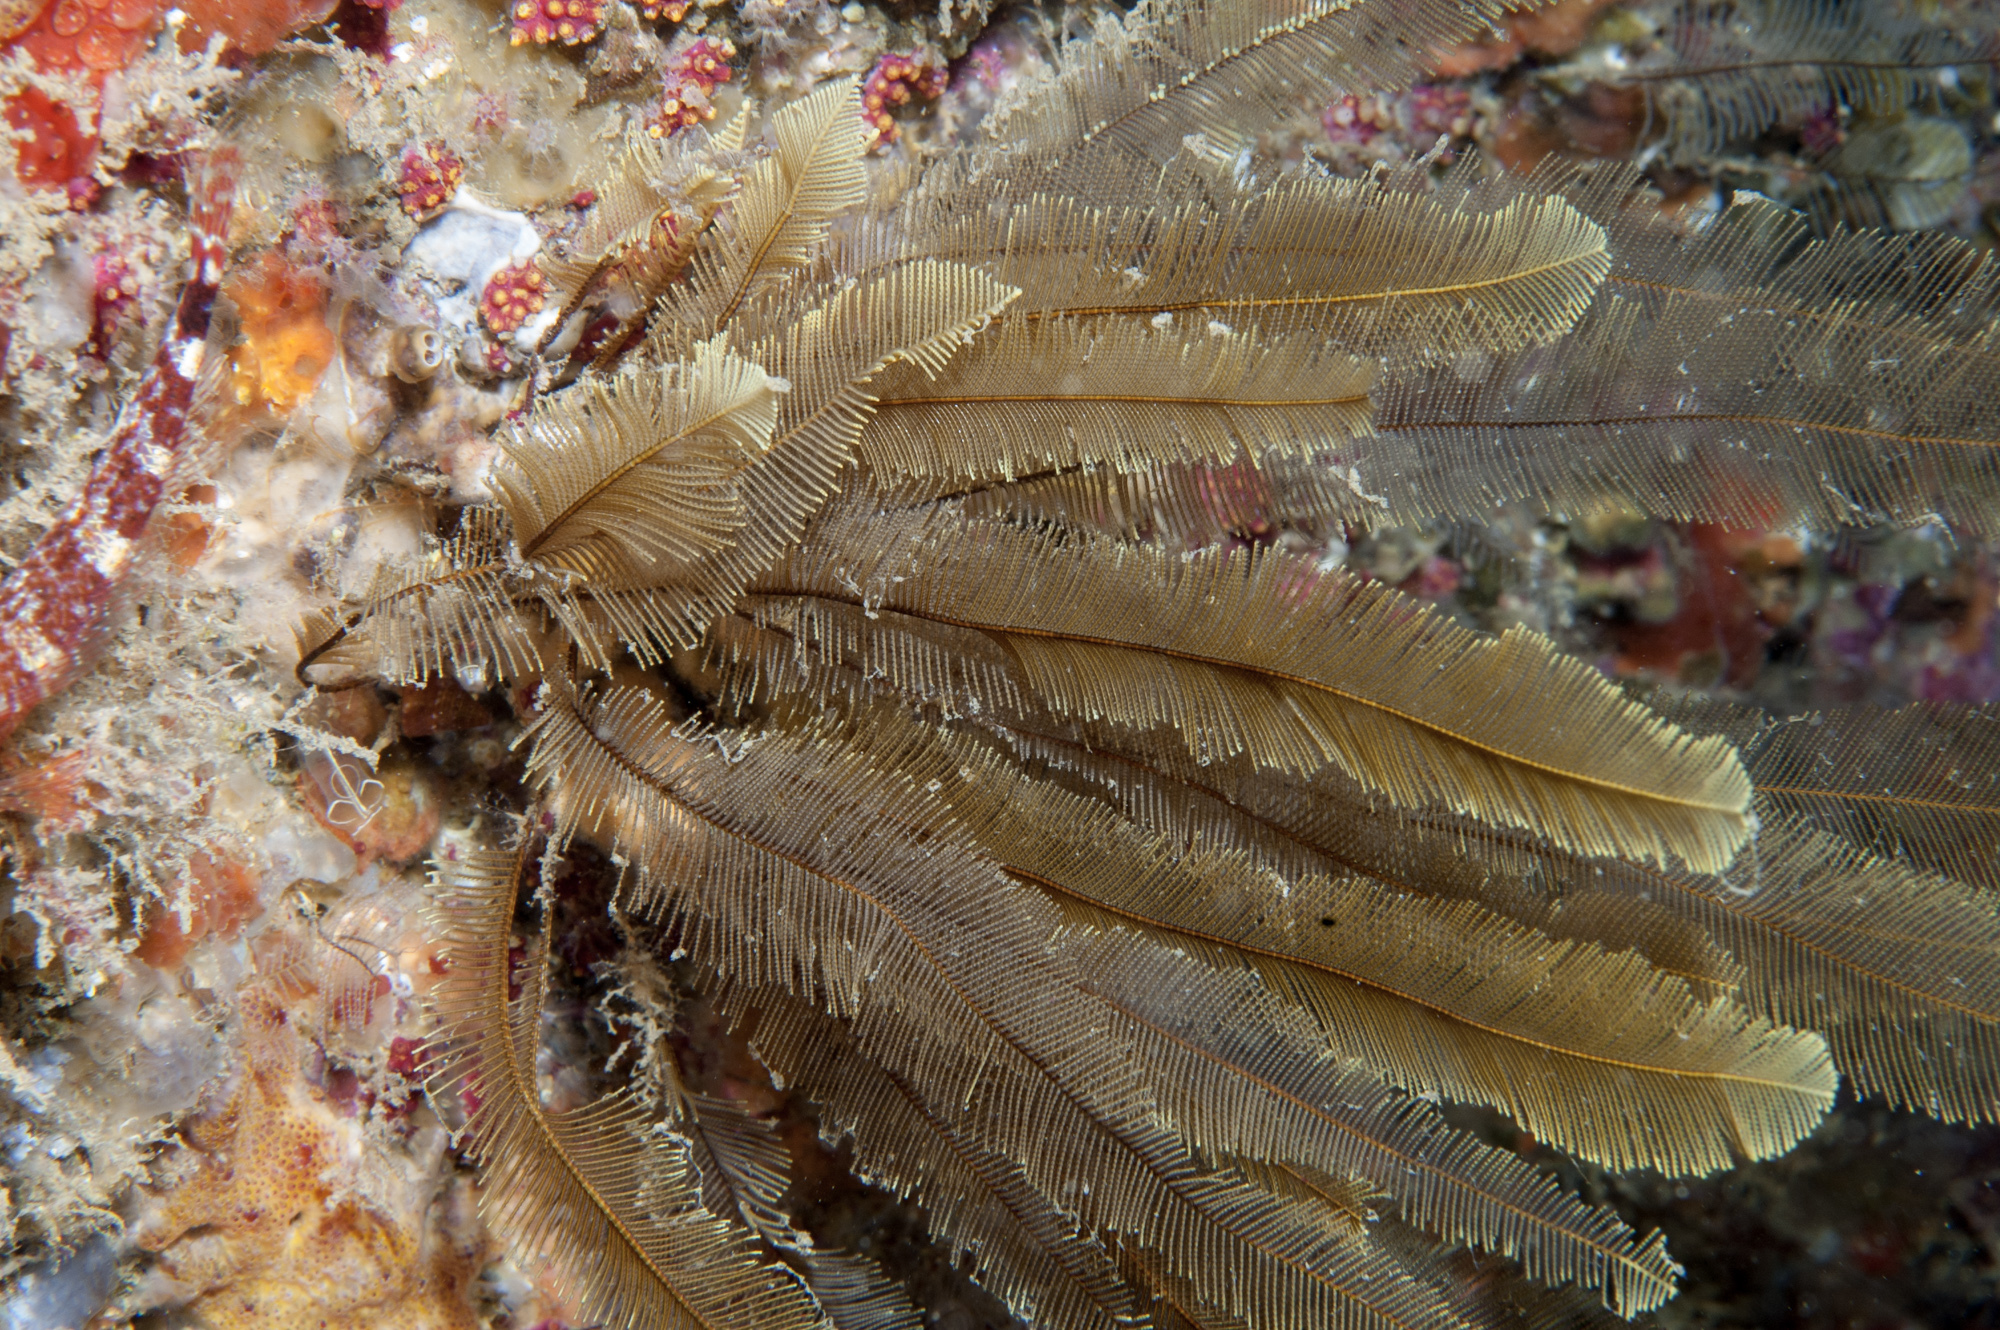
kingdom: Animalia
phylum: Cnidaria
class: Hydrozoa
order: Leptothecata
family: Aglaopheniidae
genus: Gymnangium
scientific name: Gymnangium montagui
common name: Yellow feathers
